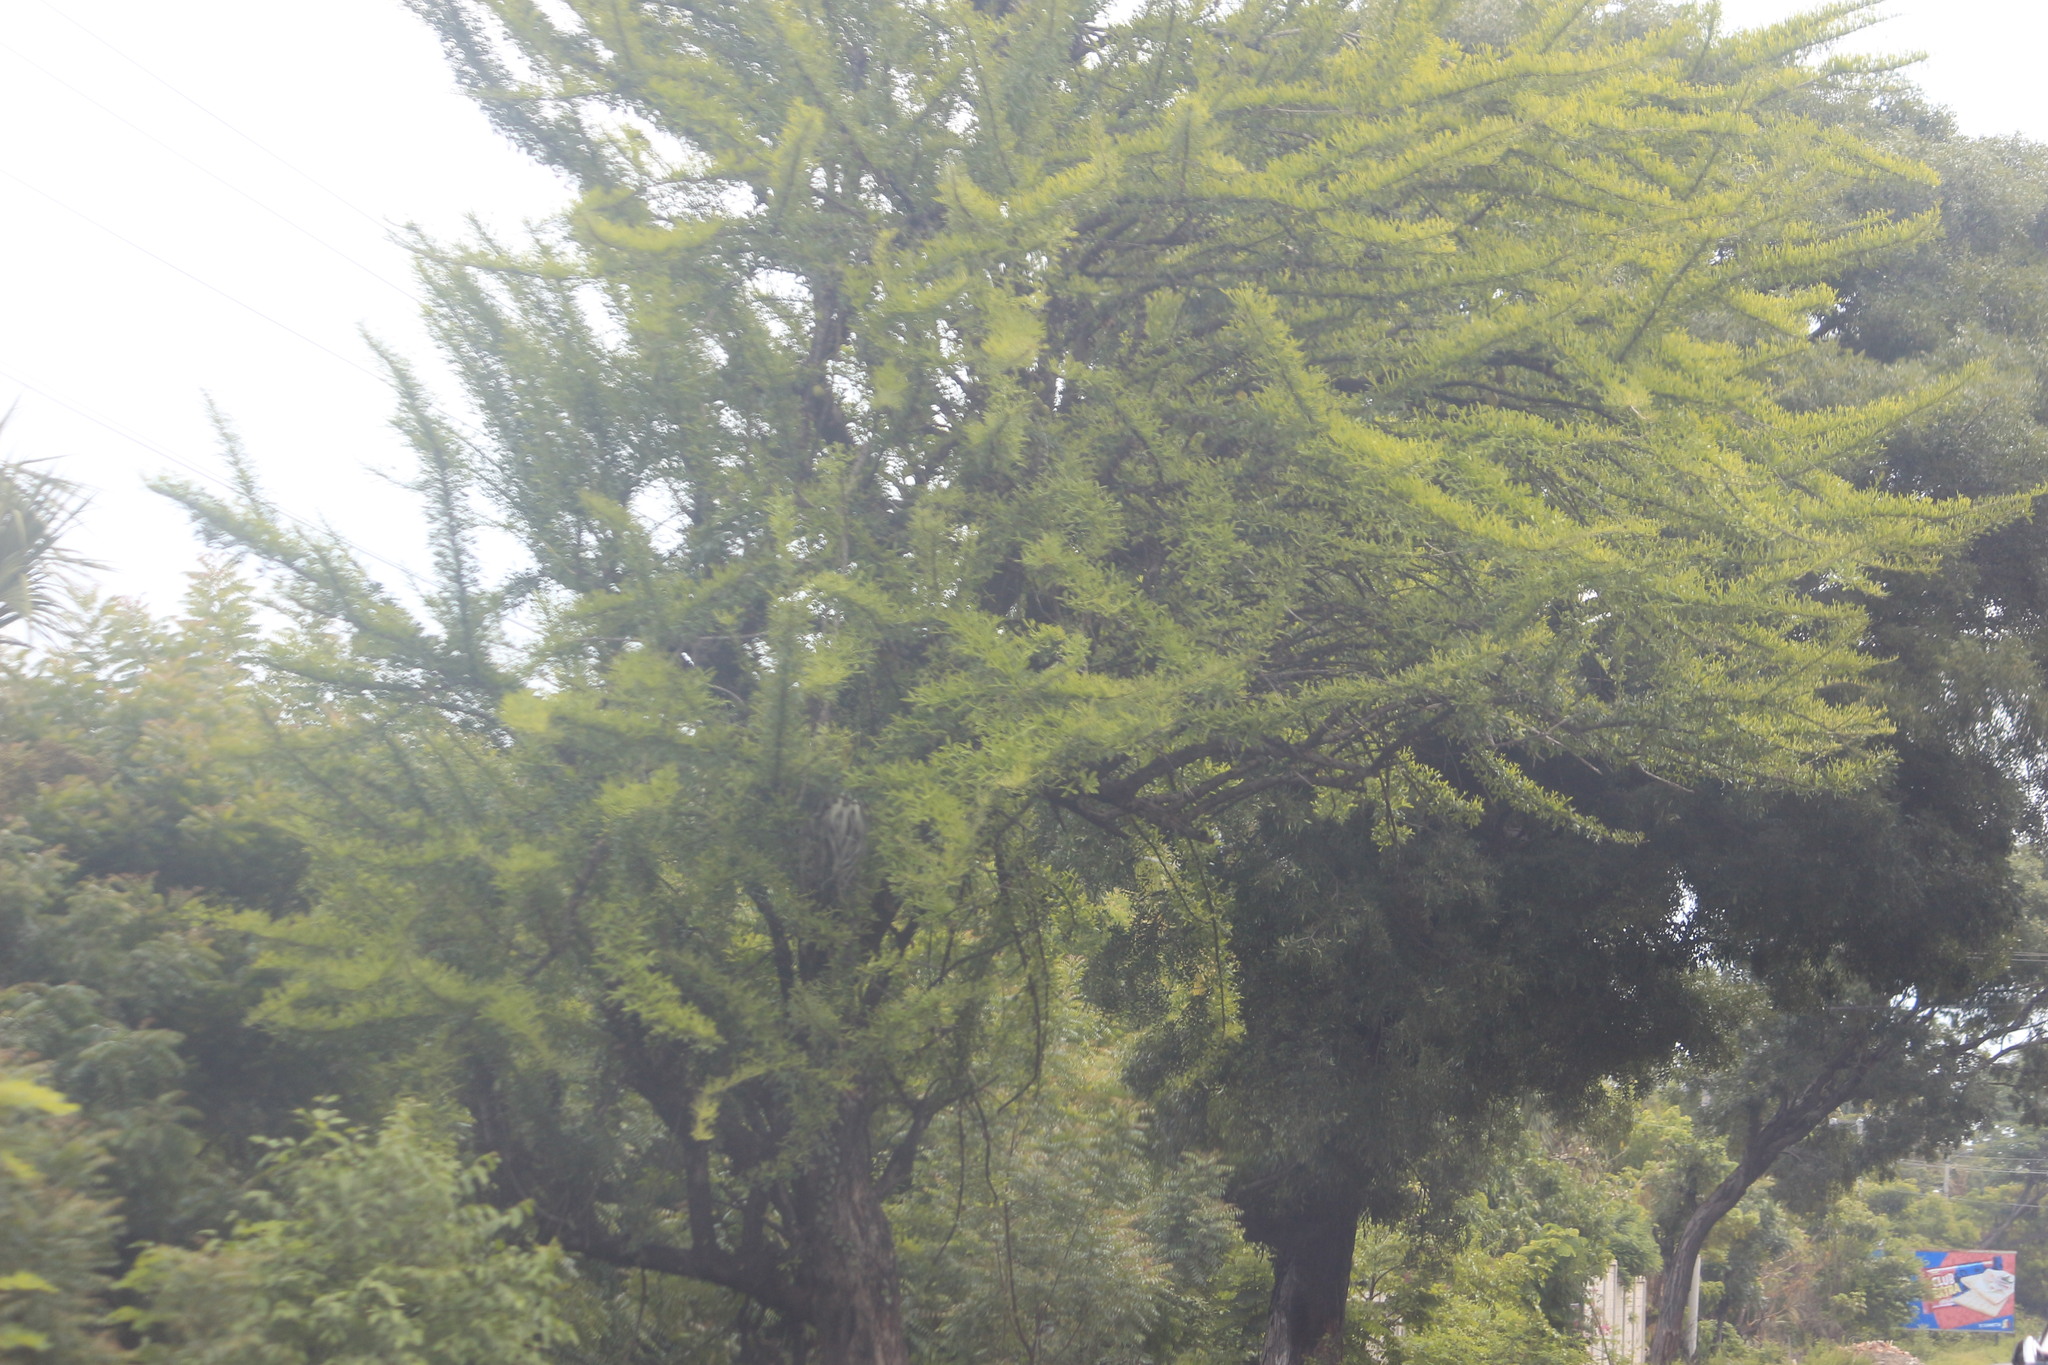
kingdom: Plantae
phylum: Tracheophyta
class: Magnoliopsida
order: Lamiales
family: Bignoniaceae
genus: Crescentia
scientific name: Crescentia alata
